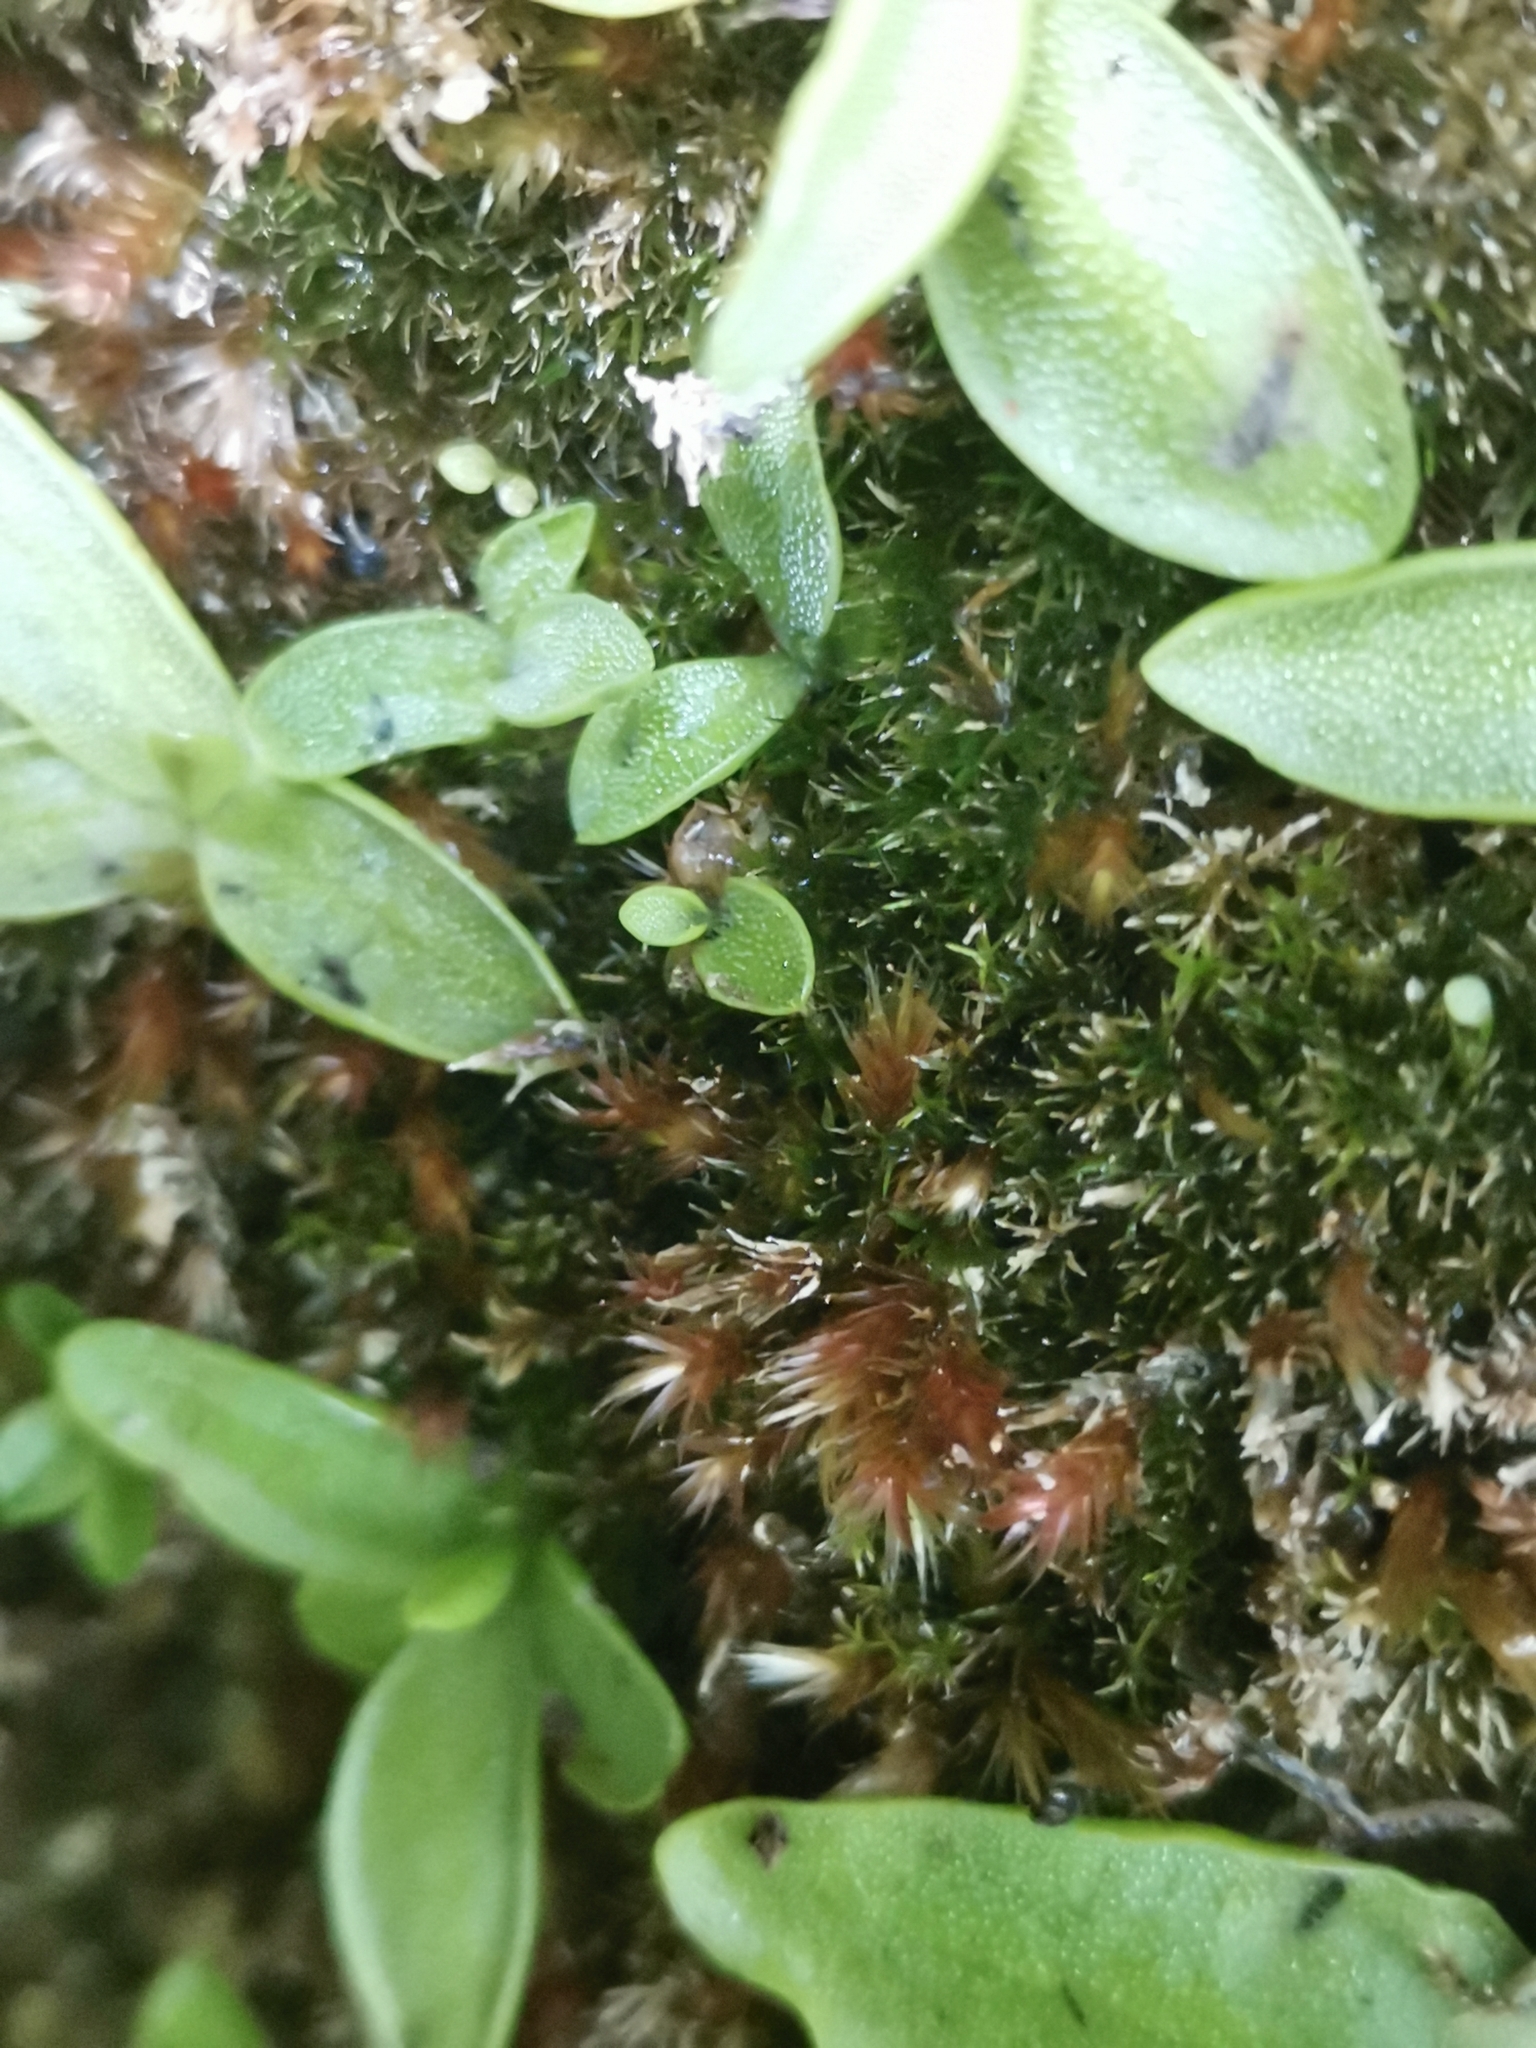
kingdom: Plantae
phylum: Bryophyta
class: Bryopsida
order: Hypnales
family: Plagiotheciaceae
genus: Orthothecium
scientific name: Orthothecium rufescens
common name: Red leskea
